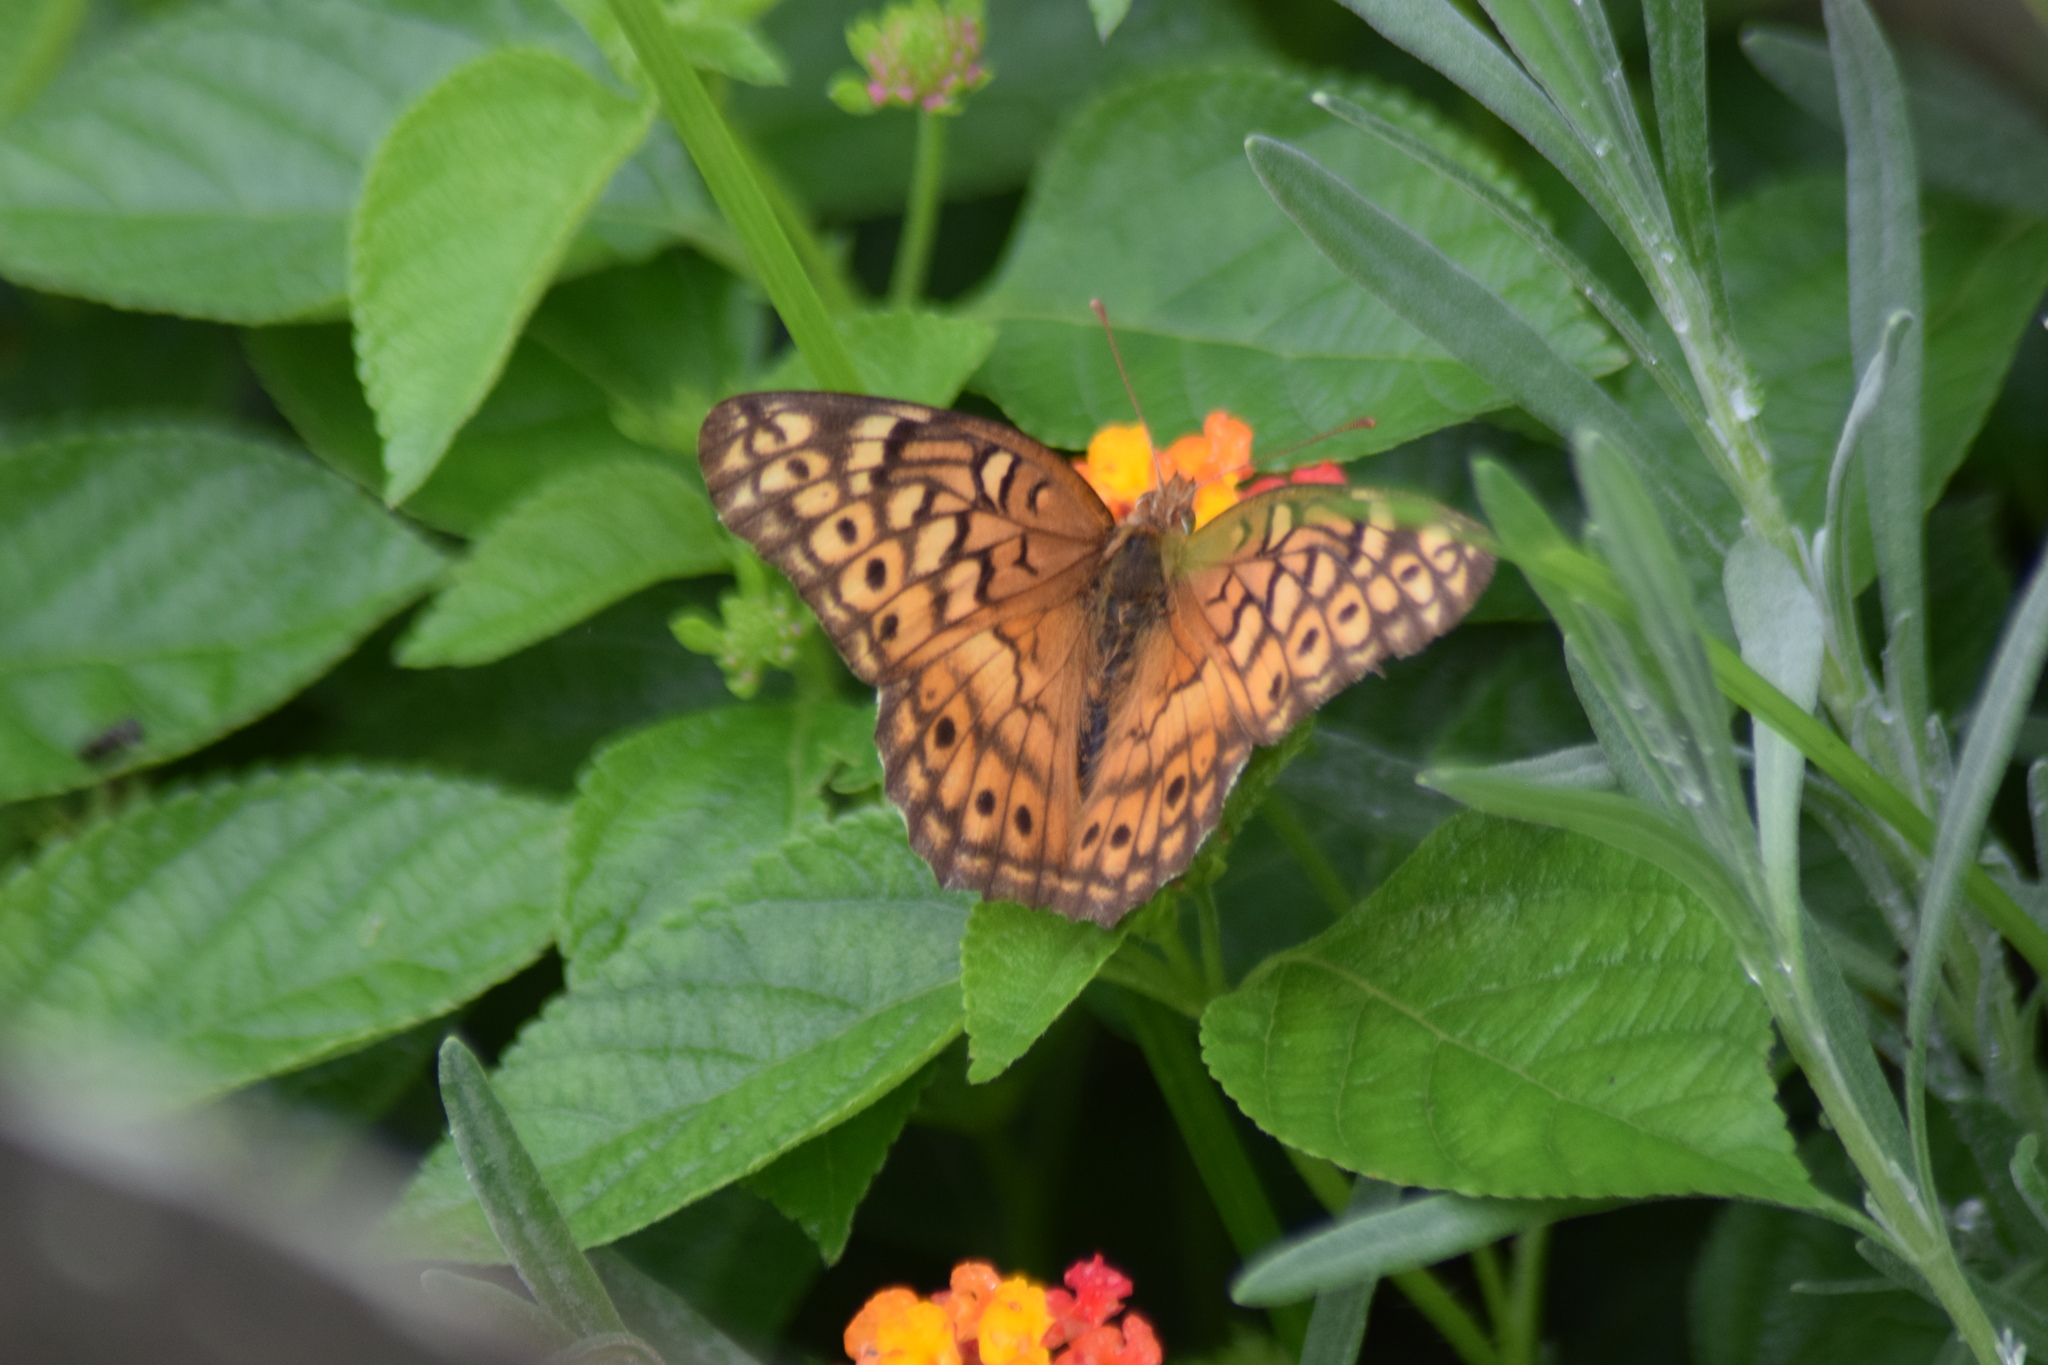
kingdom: Animalia
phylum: Arthropoda
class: Insecta
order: Lepidoptera
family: Nymphalidae
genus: Euptoieta
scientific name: Euptoieta claudia
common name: Variegated fritillary
